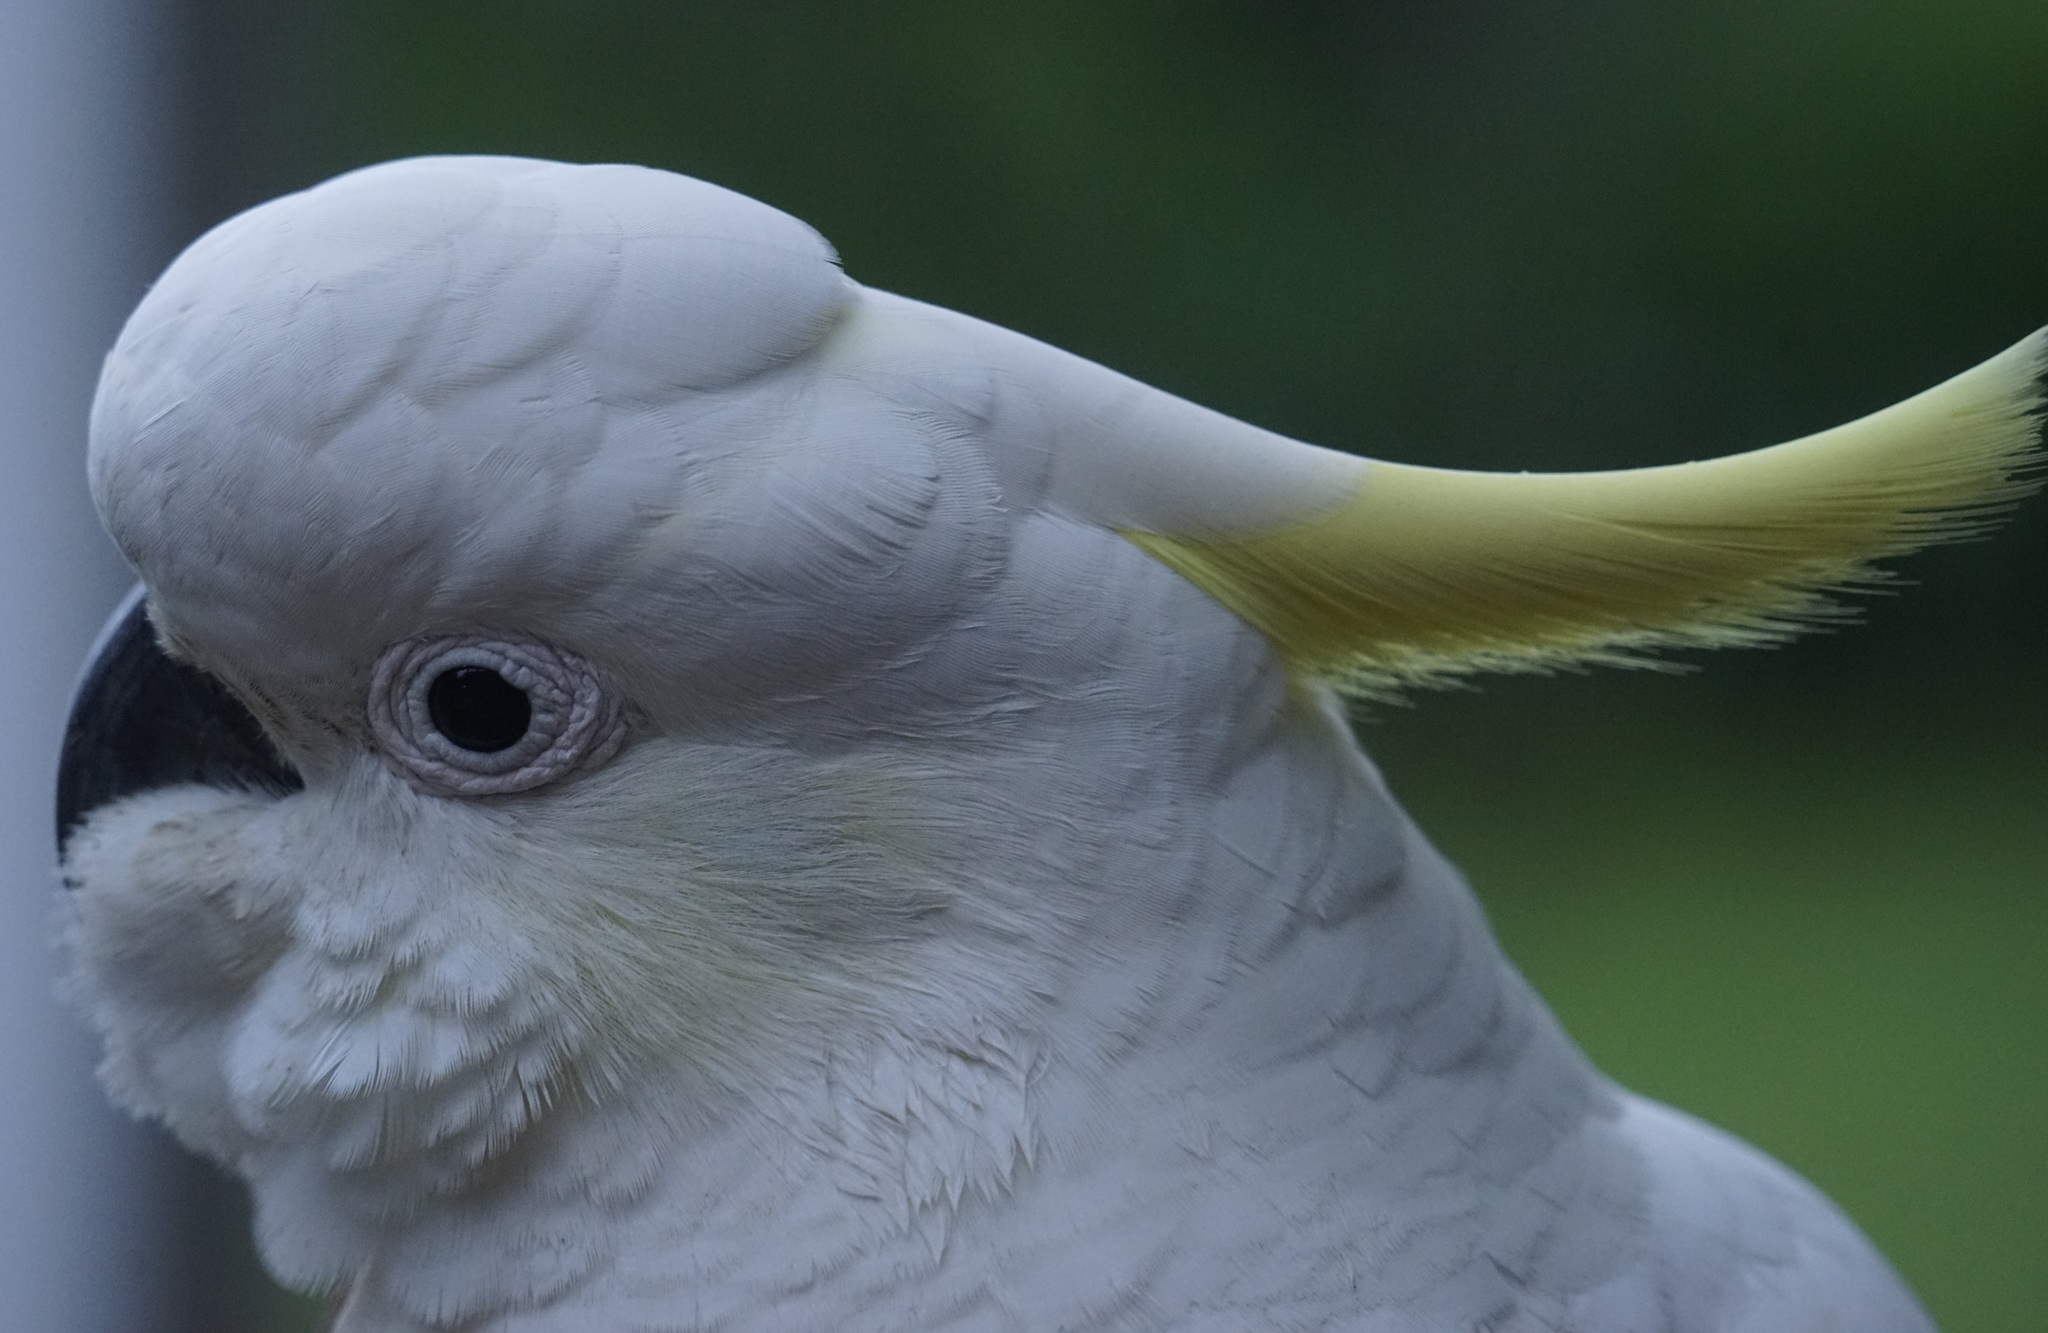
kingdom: Animalia
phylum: Chordata
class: Aves
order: Psittaciformes
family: Psittacidae
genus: Cacatua
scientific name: Cacatua galerita
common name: Sulphur-crested cockatoo
